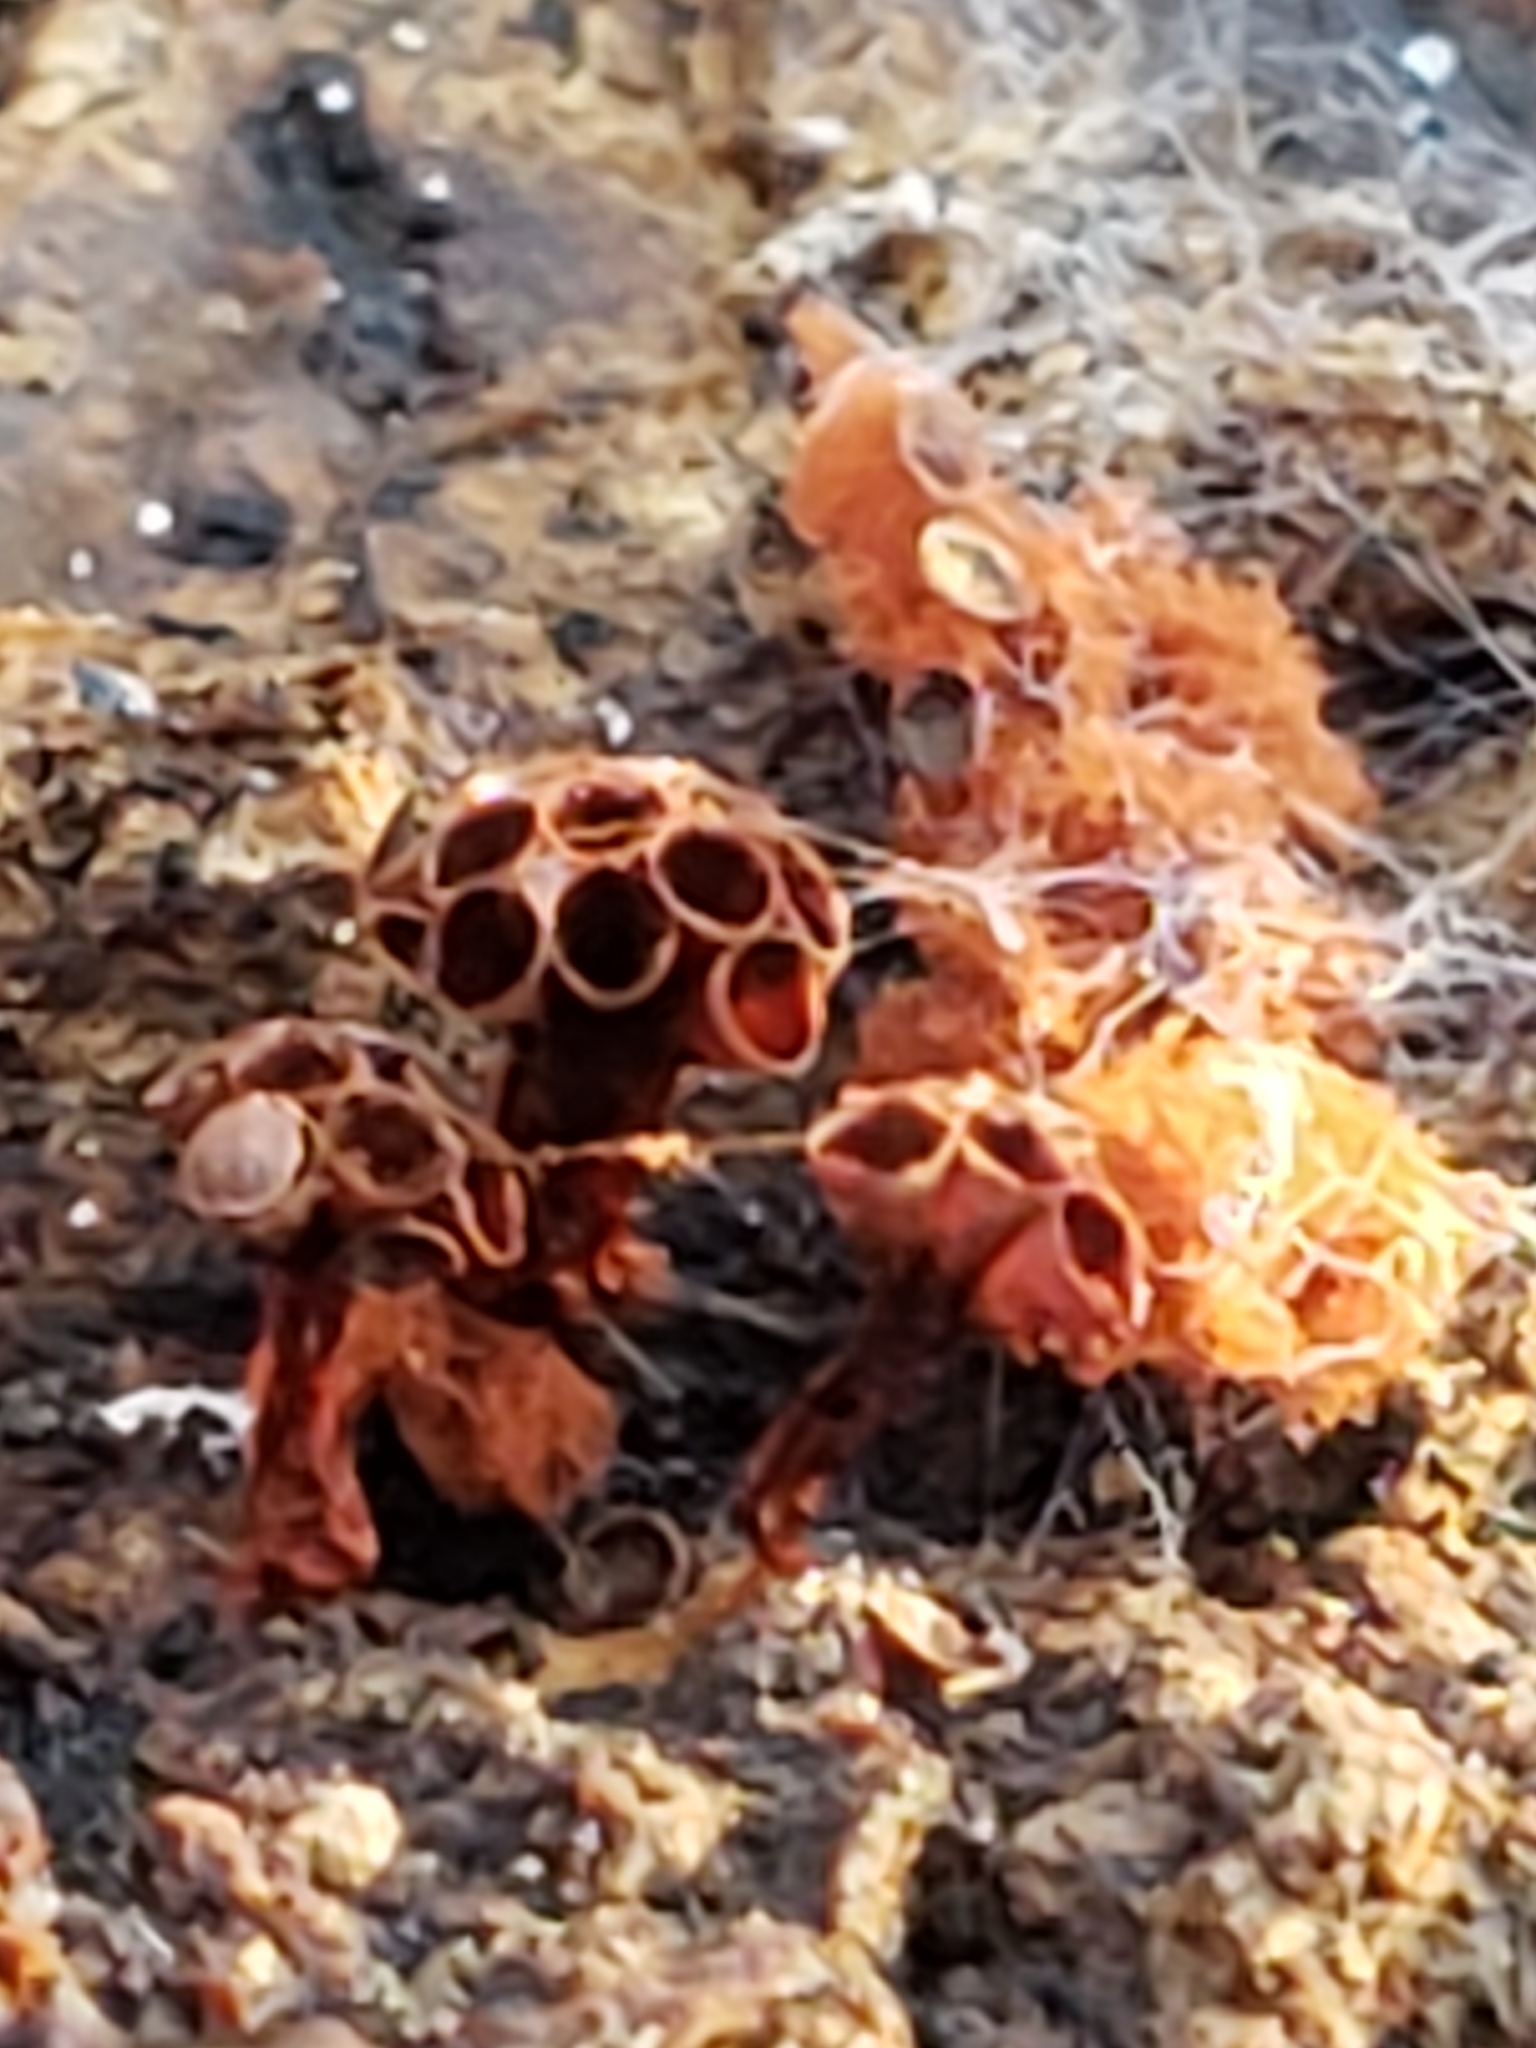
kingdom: Protozoa
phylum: Mycetozoa
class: Myxomycetes
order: Trichiales
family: Trichiaceae
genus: Metatrichia
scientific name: Metatrichia vesparia
